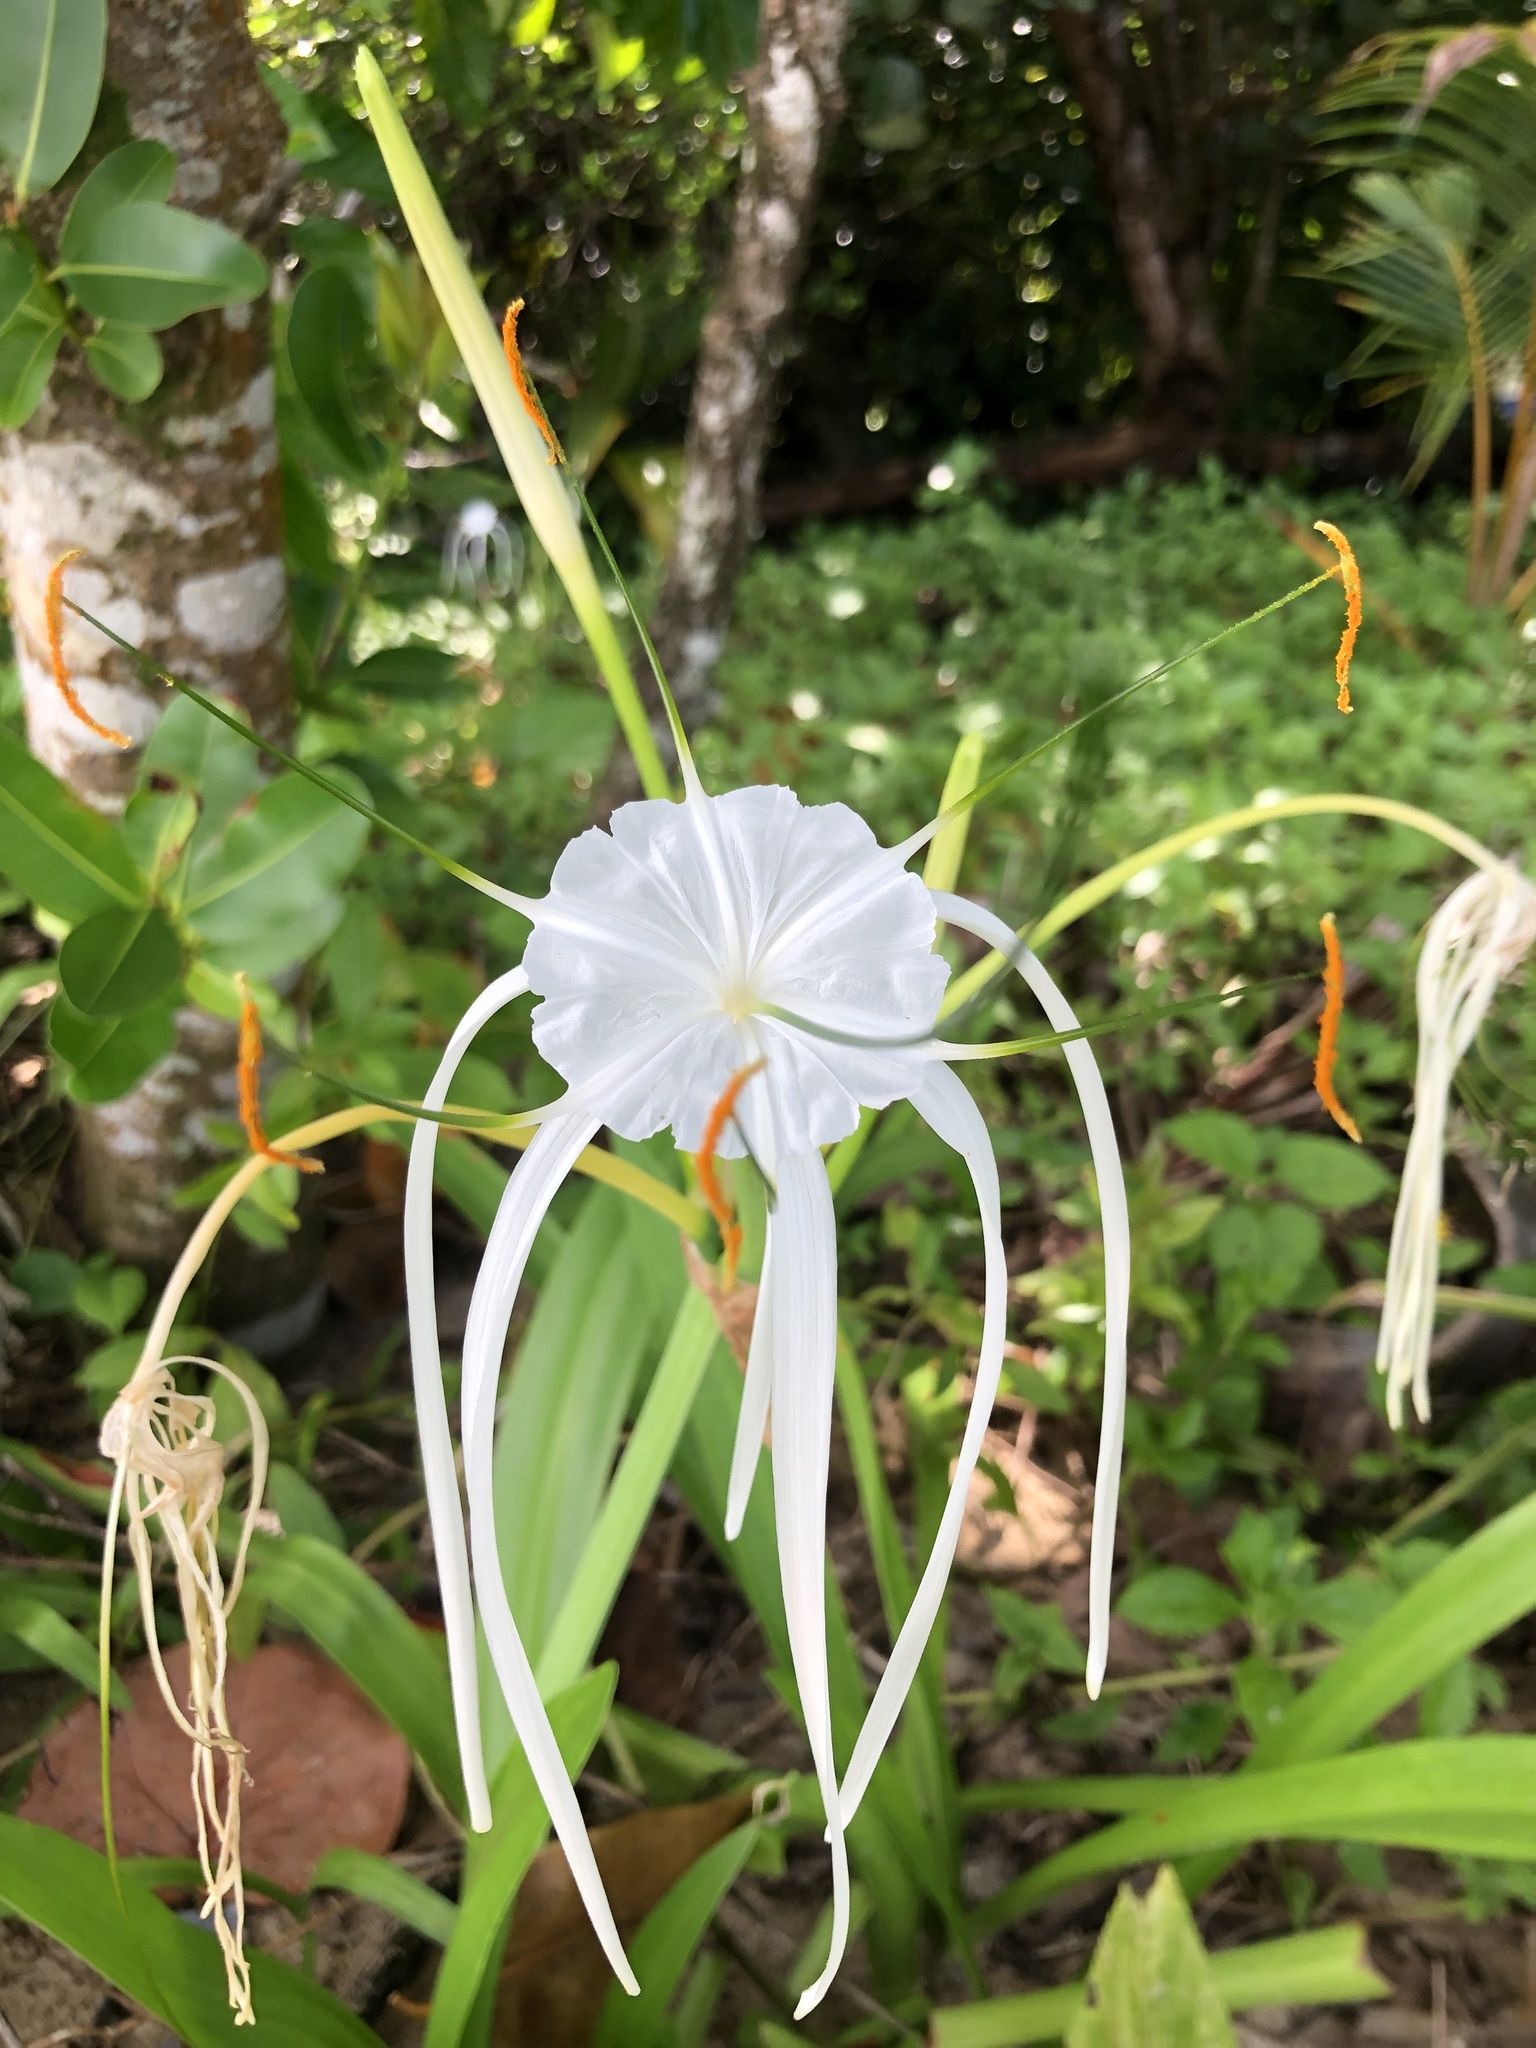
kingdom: Plantae
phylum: Tracheophyta
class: Liliopsida
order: Asparagales
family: Amaryllidaceae
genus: Hymenocallis
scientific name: Hymenocallis littoralis
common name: Beach spiderlily
